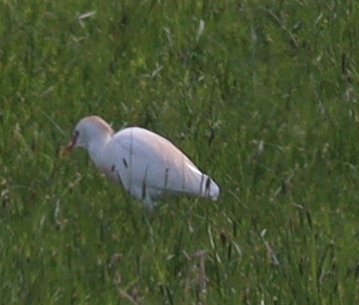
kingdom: Animalia
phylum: Chordata
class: Aves
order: Pelecaniformes
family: Ardeidae
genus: Bubulcus
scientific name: Bubulcus ibis
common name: Cattle egret
